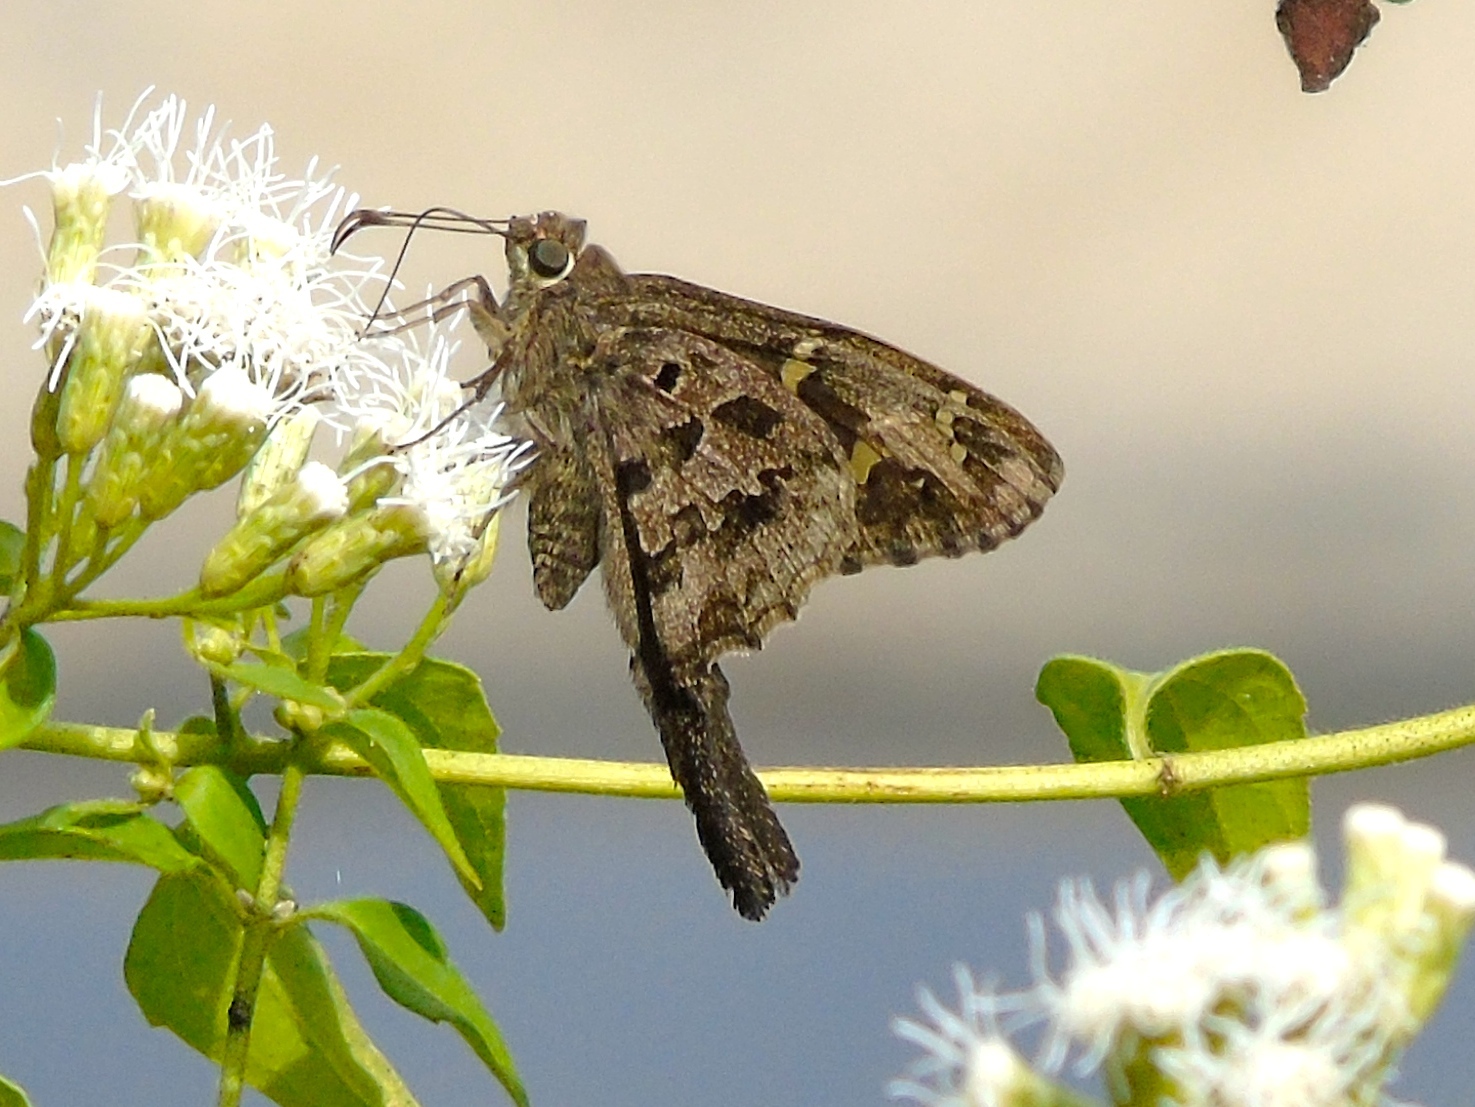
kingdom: Animalia
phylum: Arthropoda
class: Insecta
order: Lepidoptera
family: Hesperiidae
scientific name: Hesperiidae
